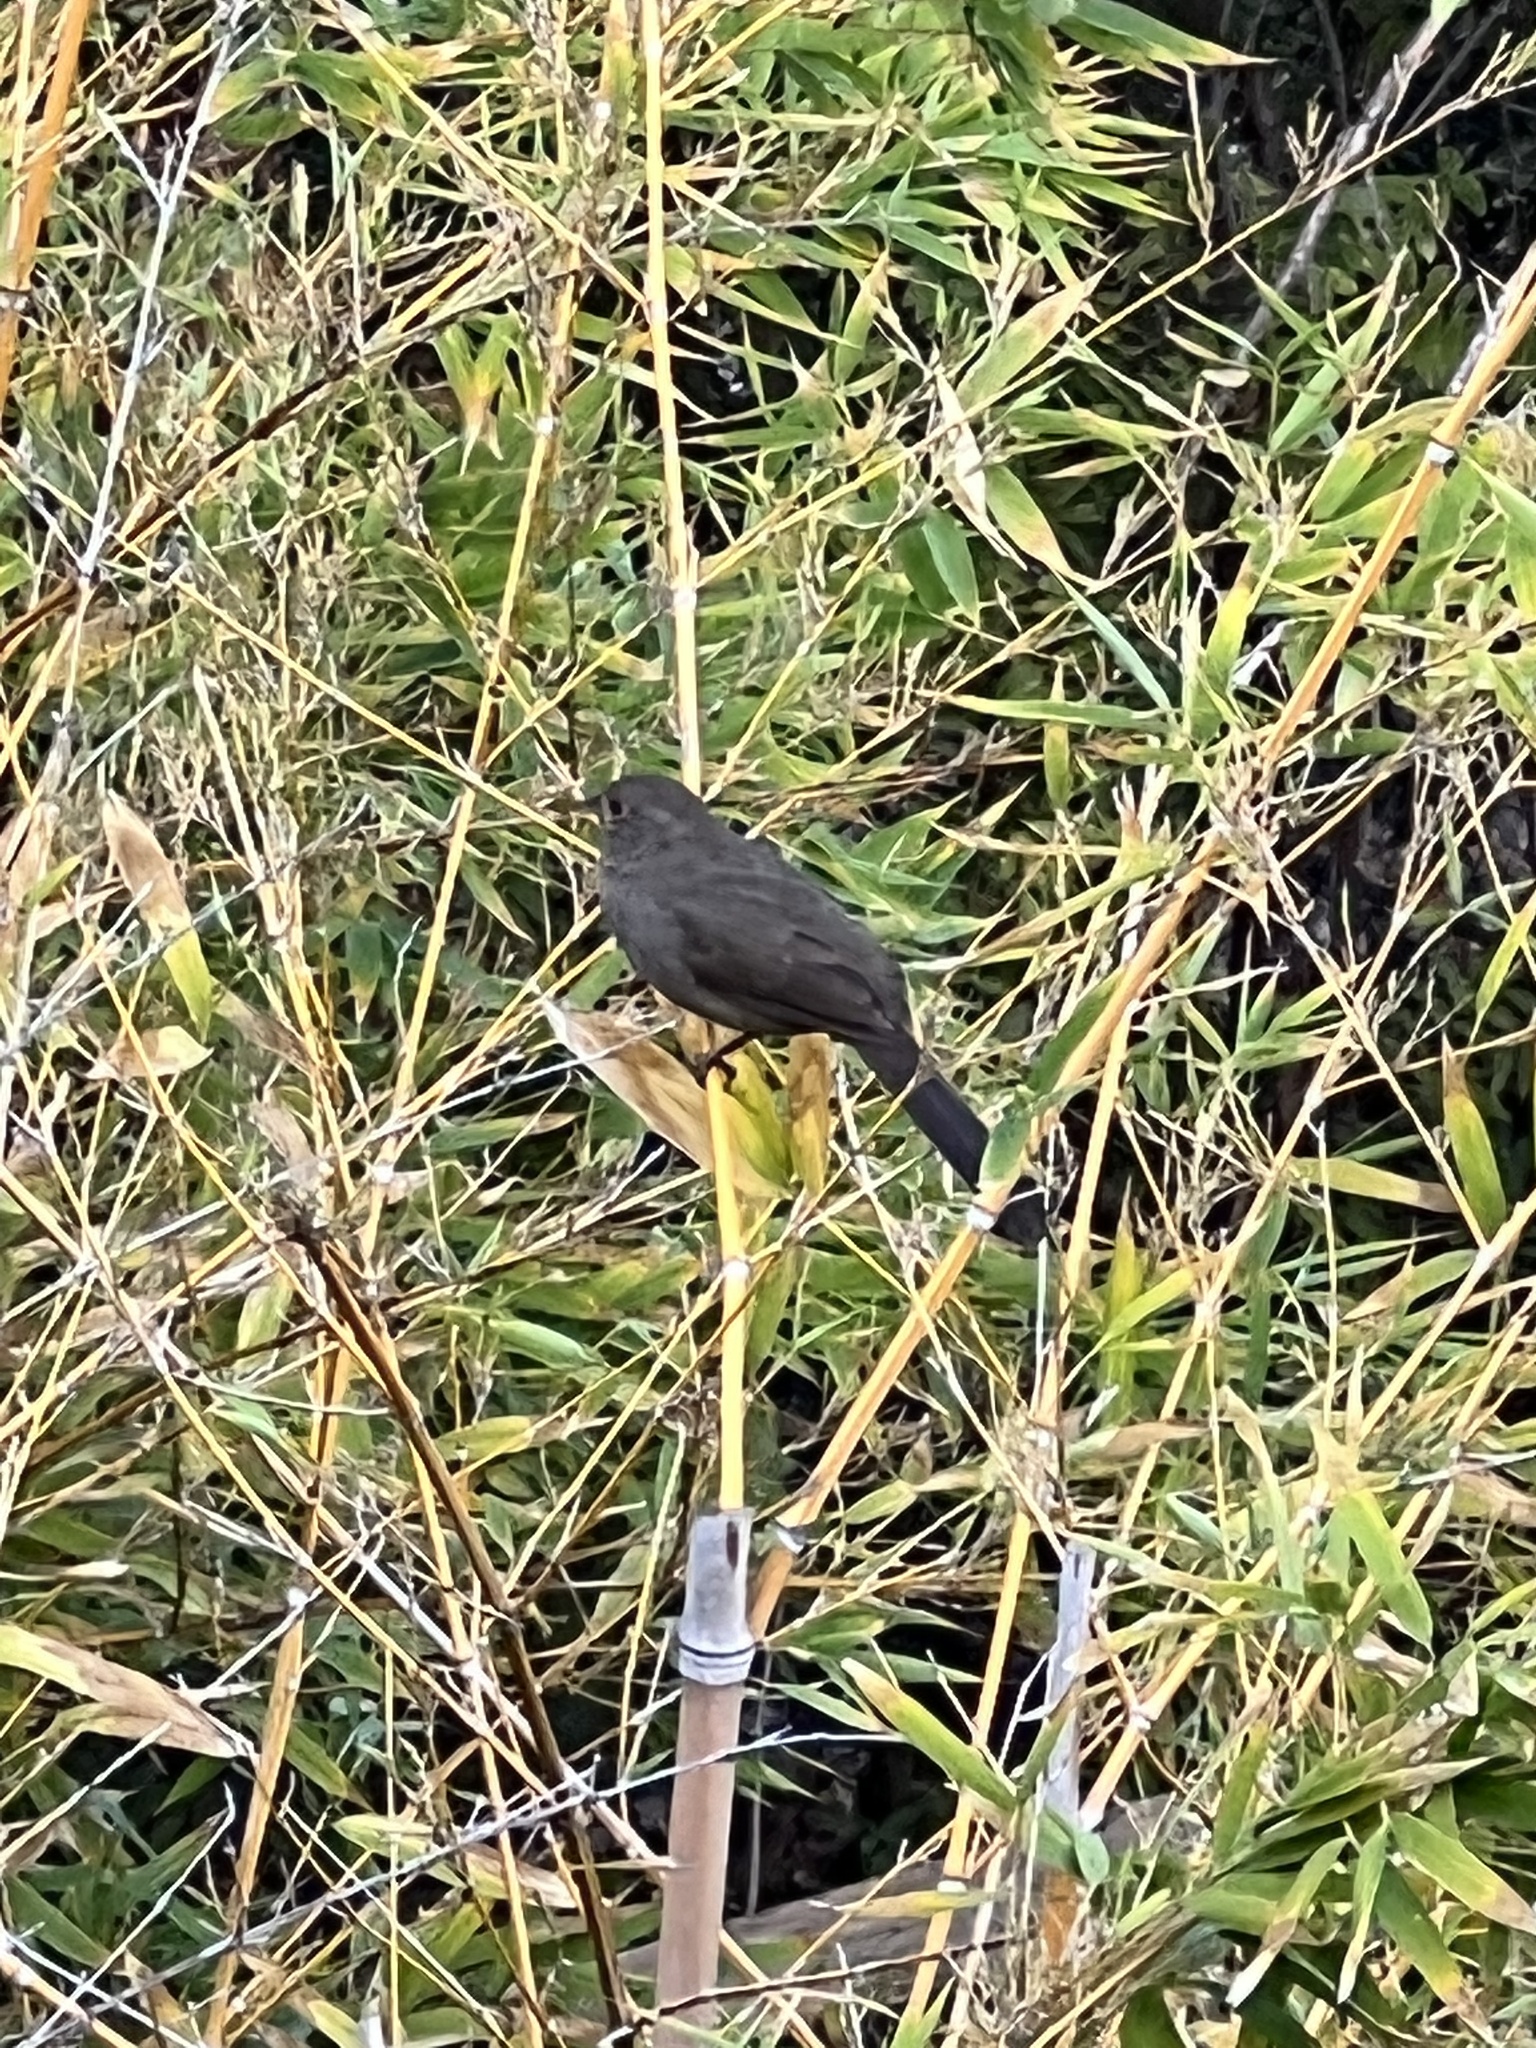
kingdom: Animalia
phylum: Chordata
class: Aves
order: Passeriformes
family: Passerellidae
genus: Melozone
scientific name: Melozone crissalis
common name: California towhee
